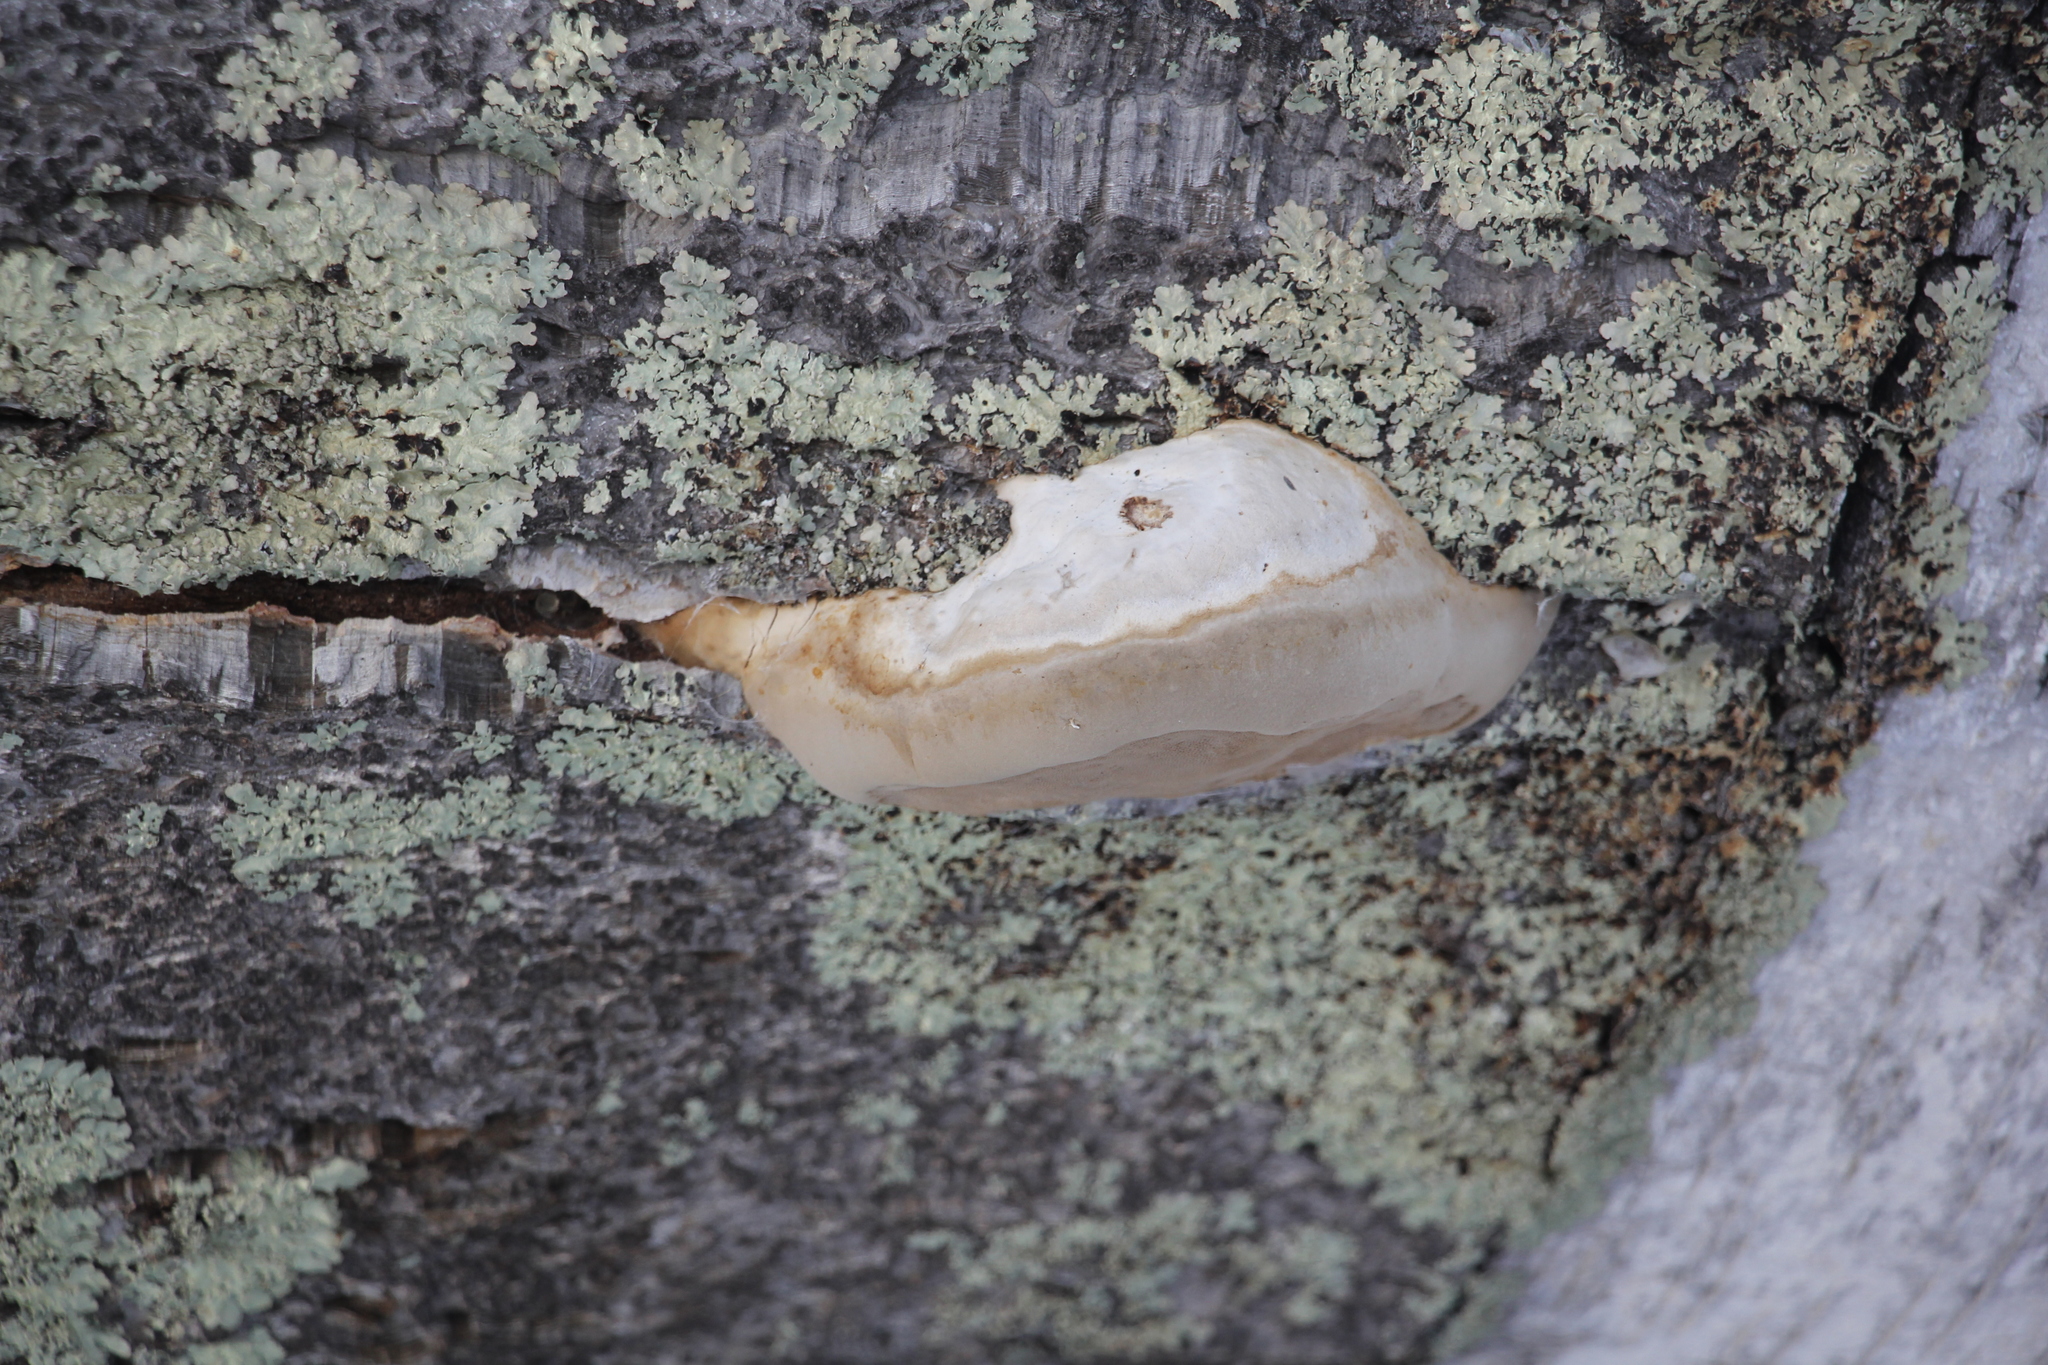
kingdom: Fungi
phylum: Basidiomycota
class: Agaricomycetes
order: Polyporales
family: Polyporaceae
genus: Fomes
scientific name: Fomes fomentarius
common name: Hoof fungus
